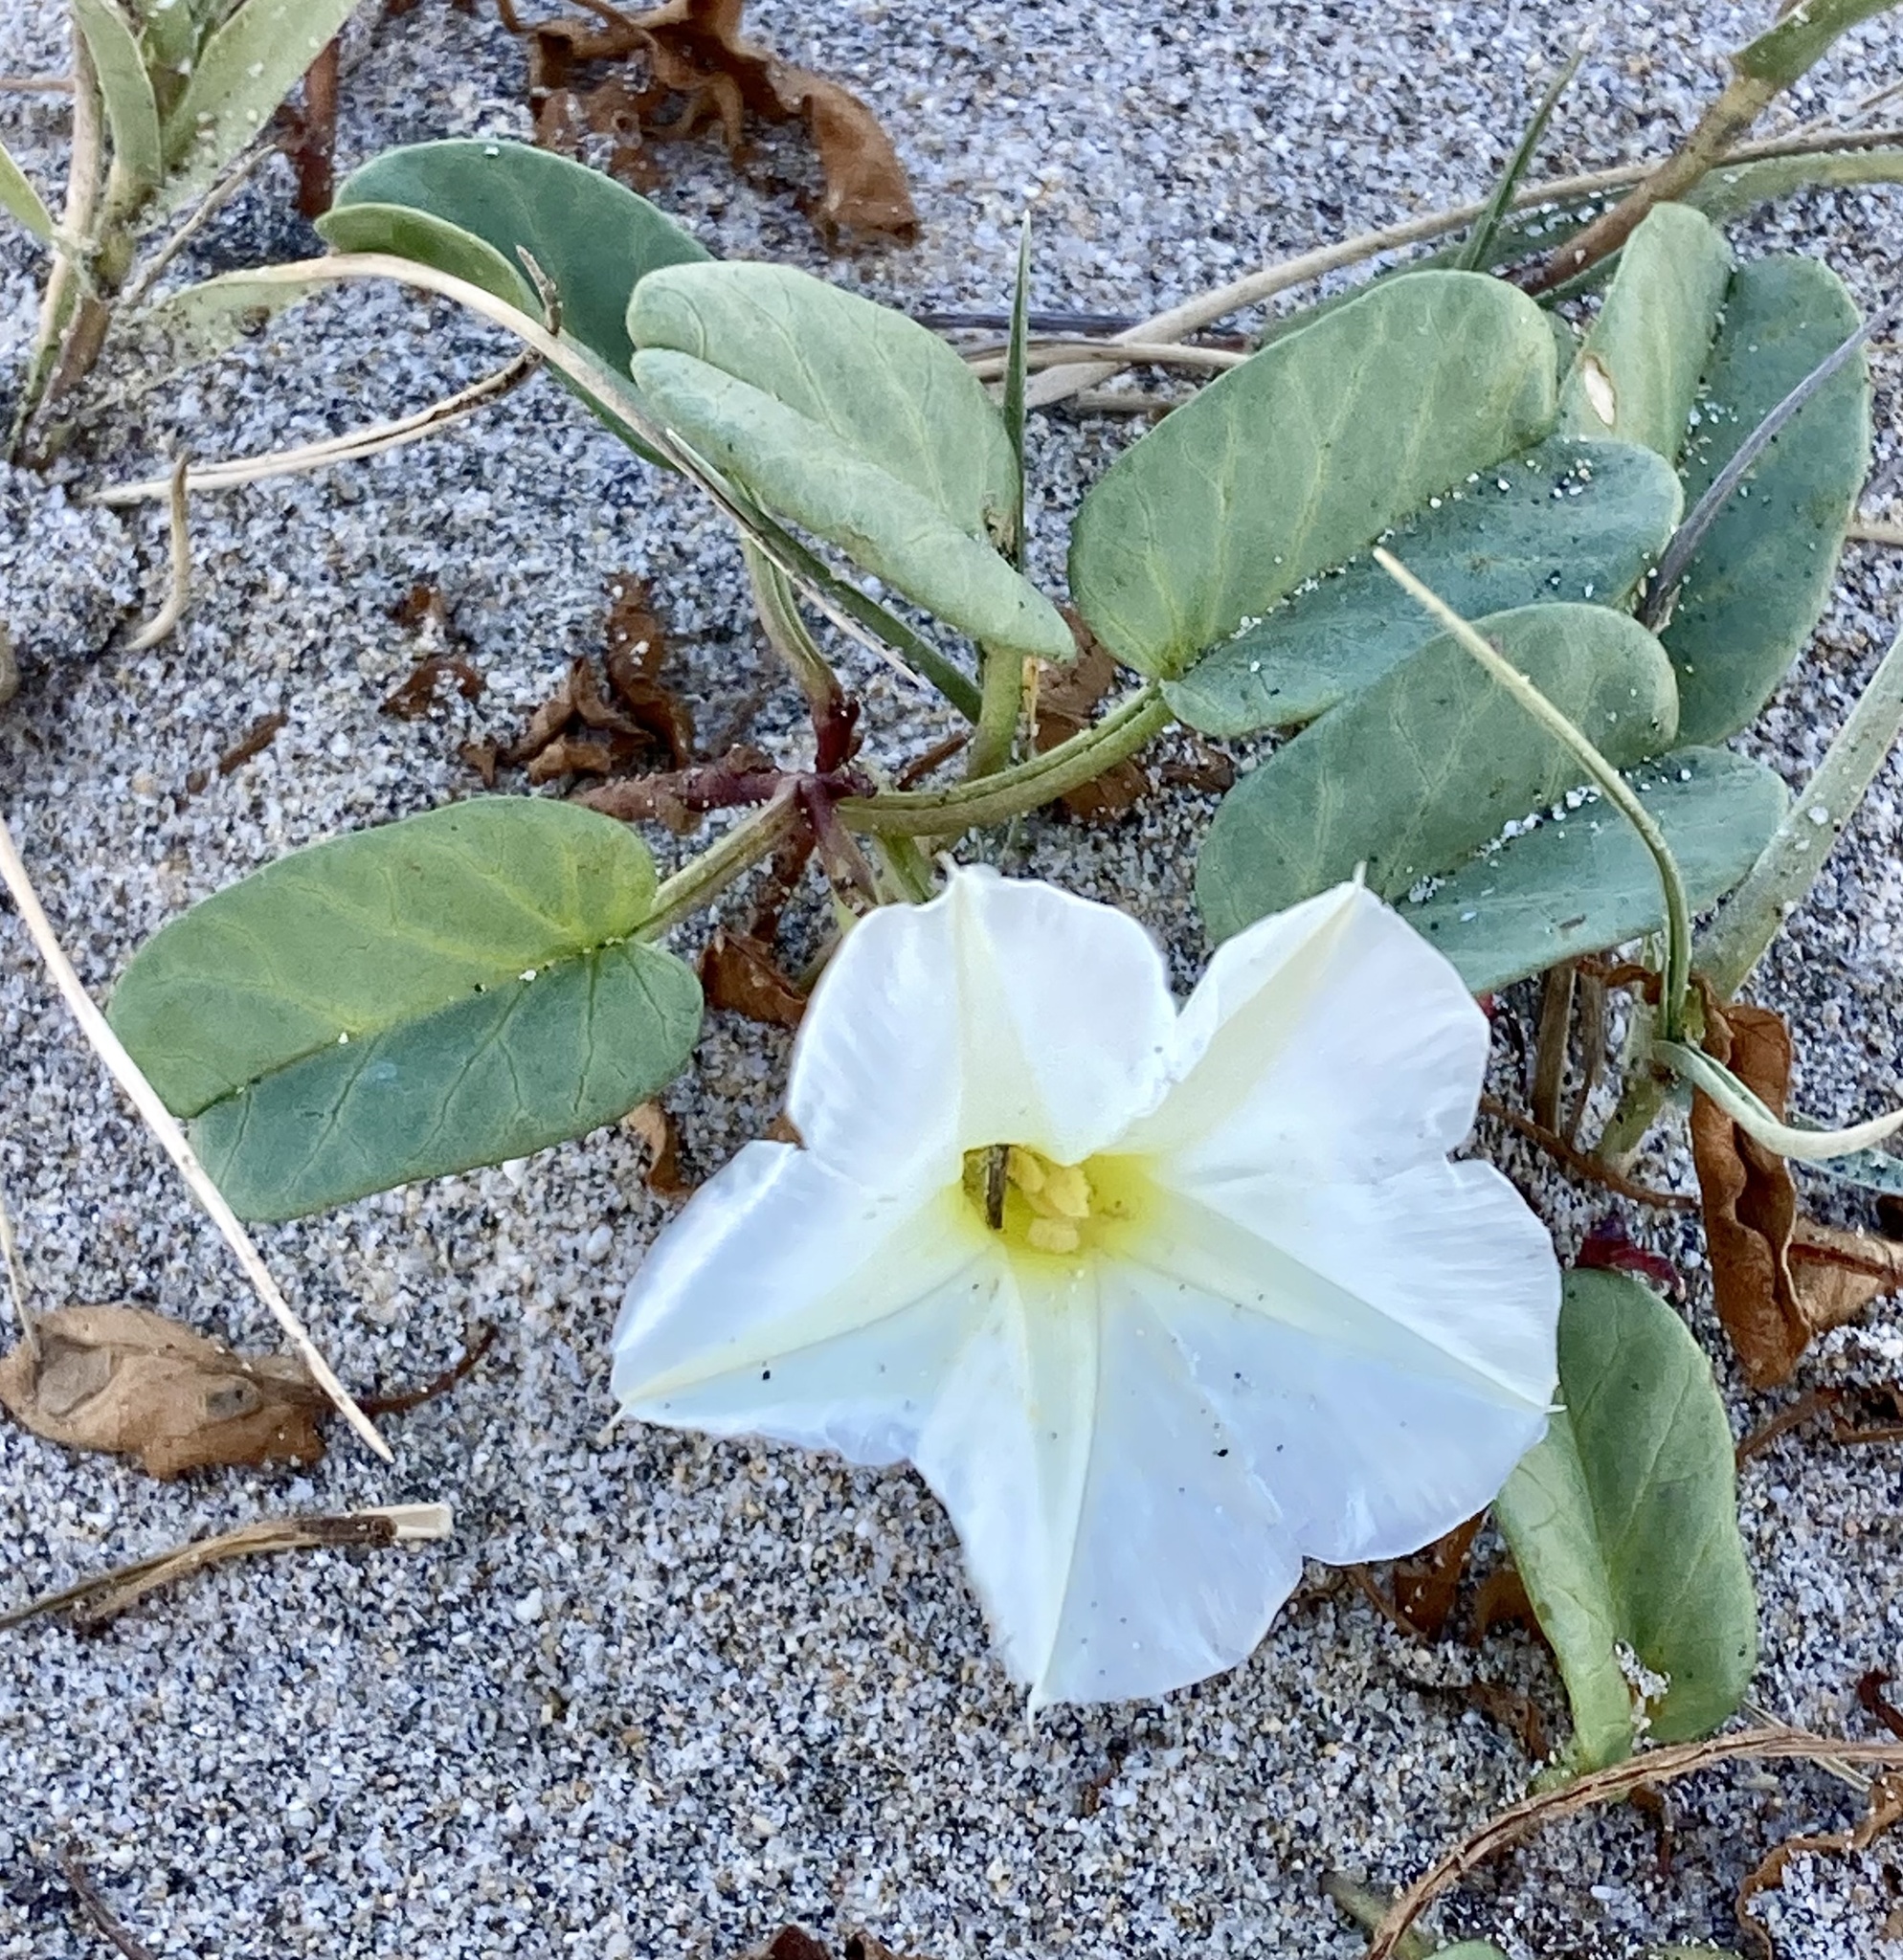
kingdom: Plantae
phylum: Tracheophyta
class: Magnoliopsida
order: Solanales
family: Convolvulaceae
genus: Ipomoea
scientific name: Ipomoea imperati
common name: Fiddle-leaf morning-glory
